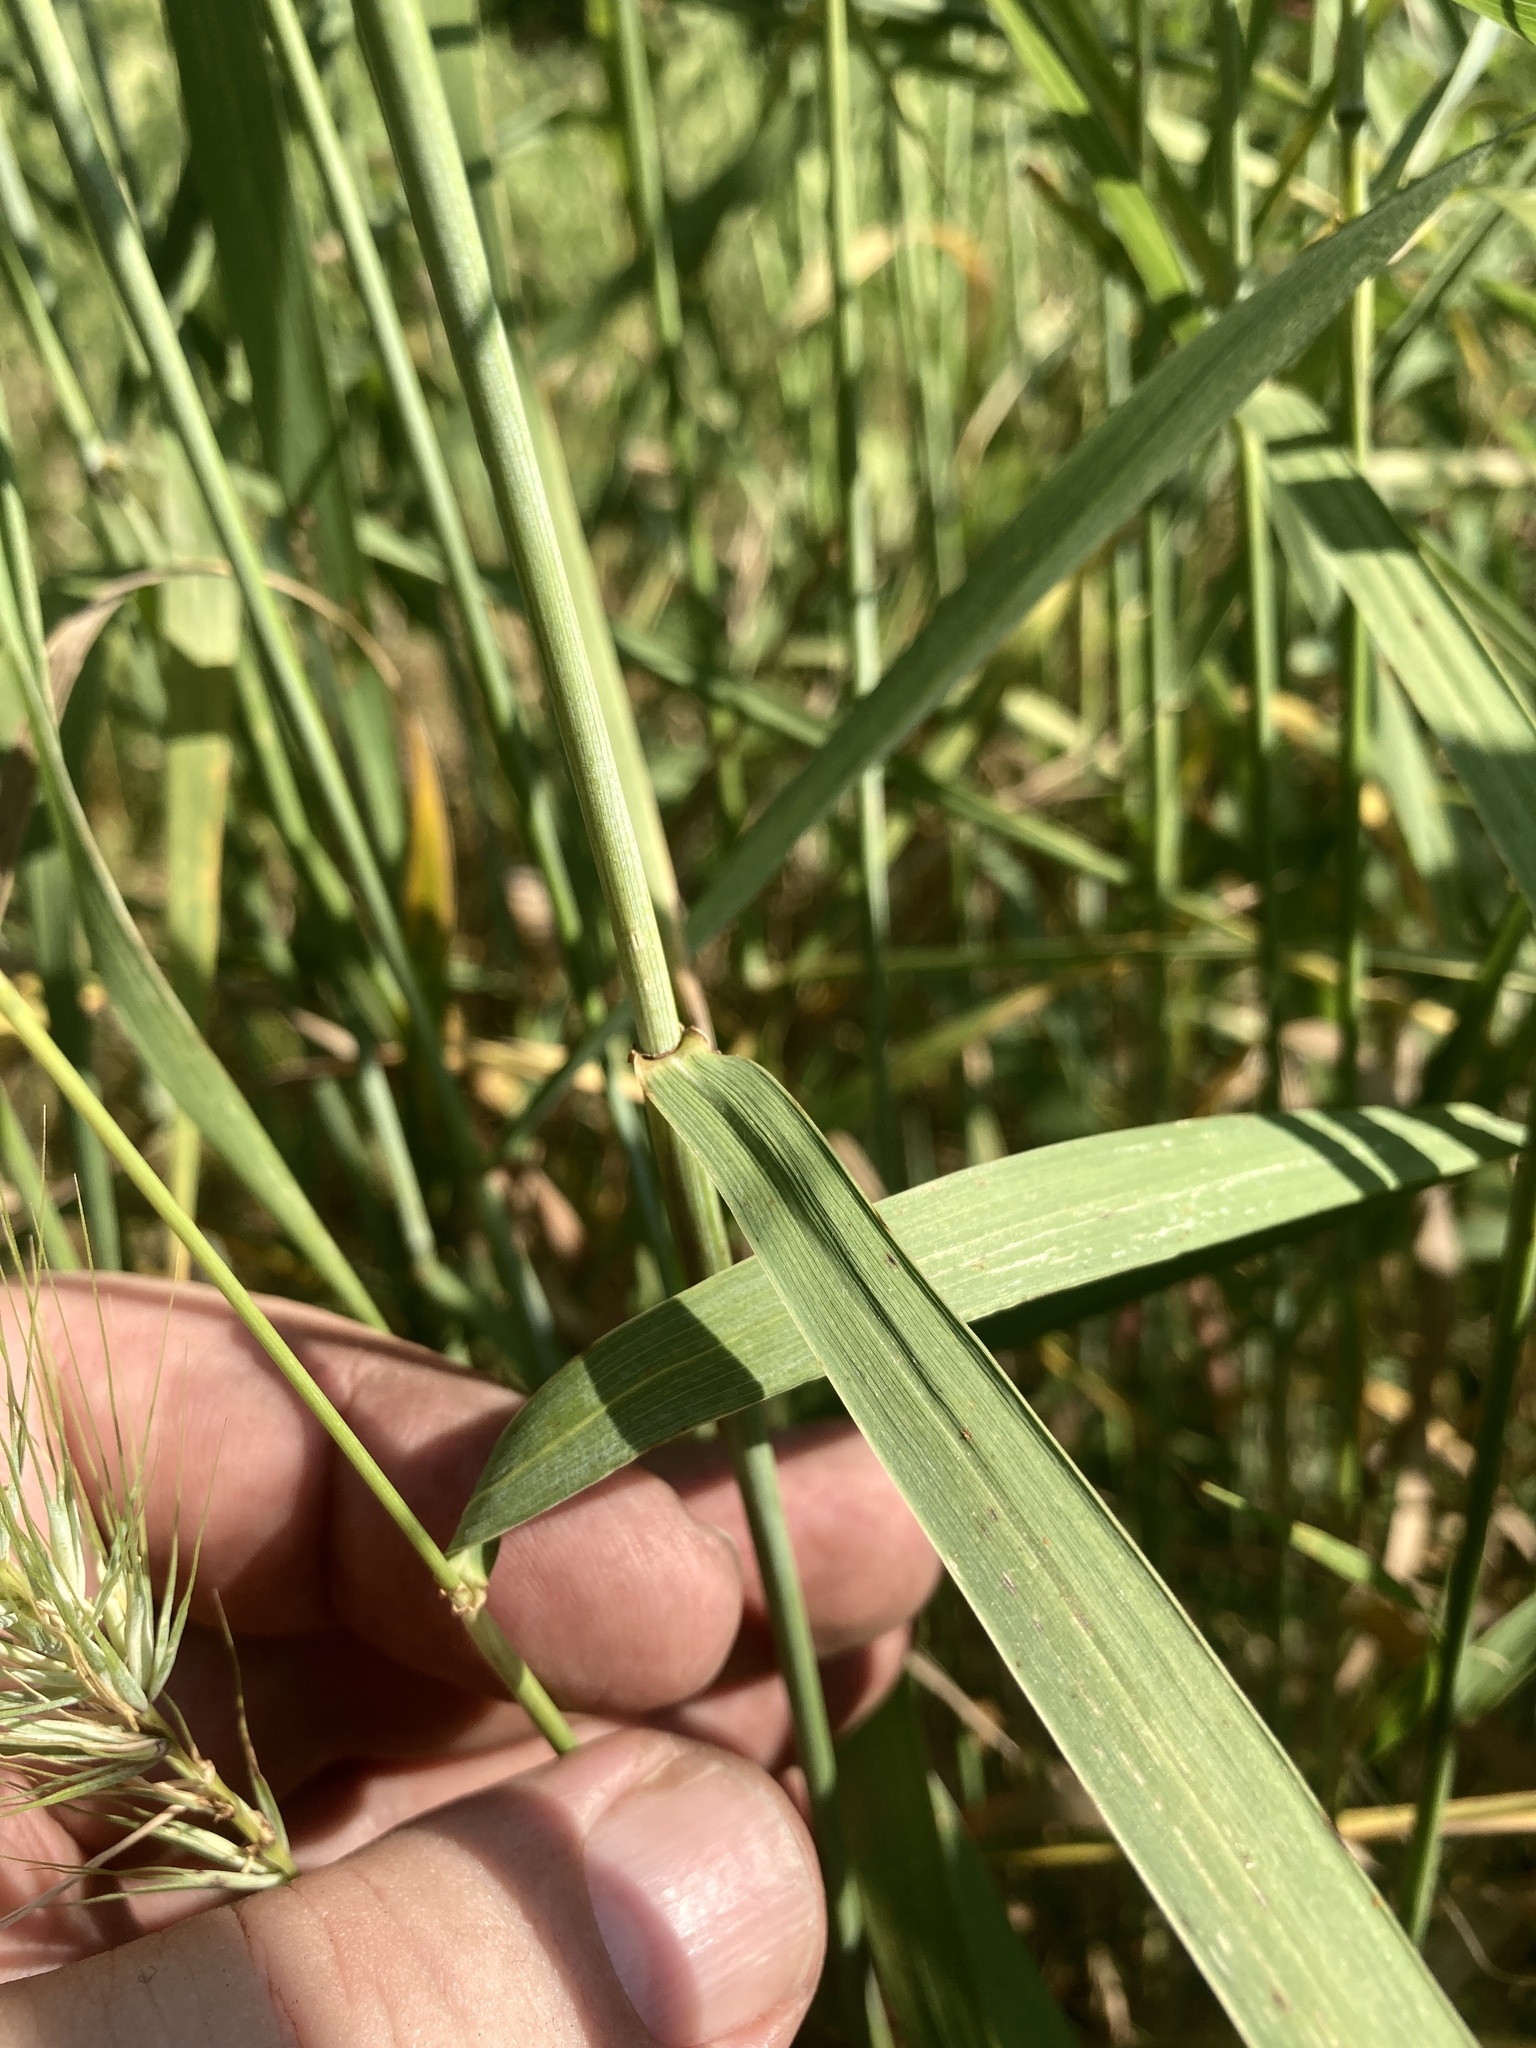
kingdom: Plantae
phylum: Tracheophyta
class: Liliopsida
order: Poales
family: Poaceae
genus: Elymus
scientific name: Elymus virginicus
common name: Common eastern wildrye
